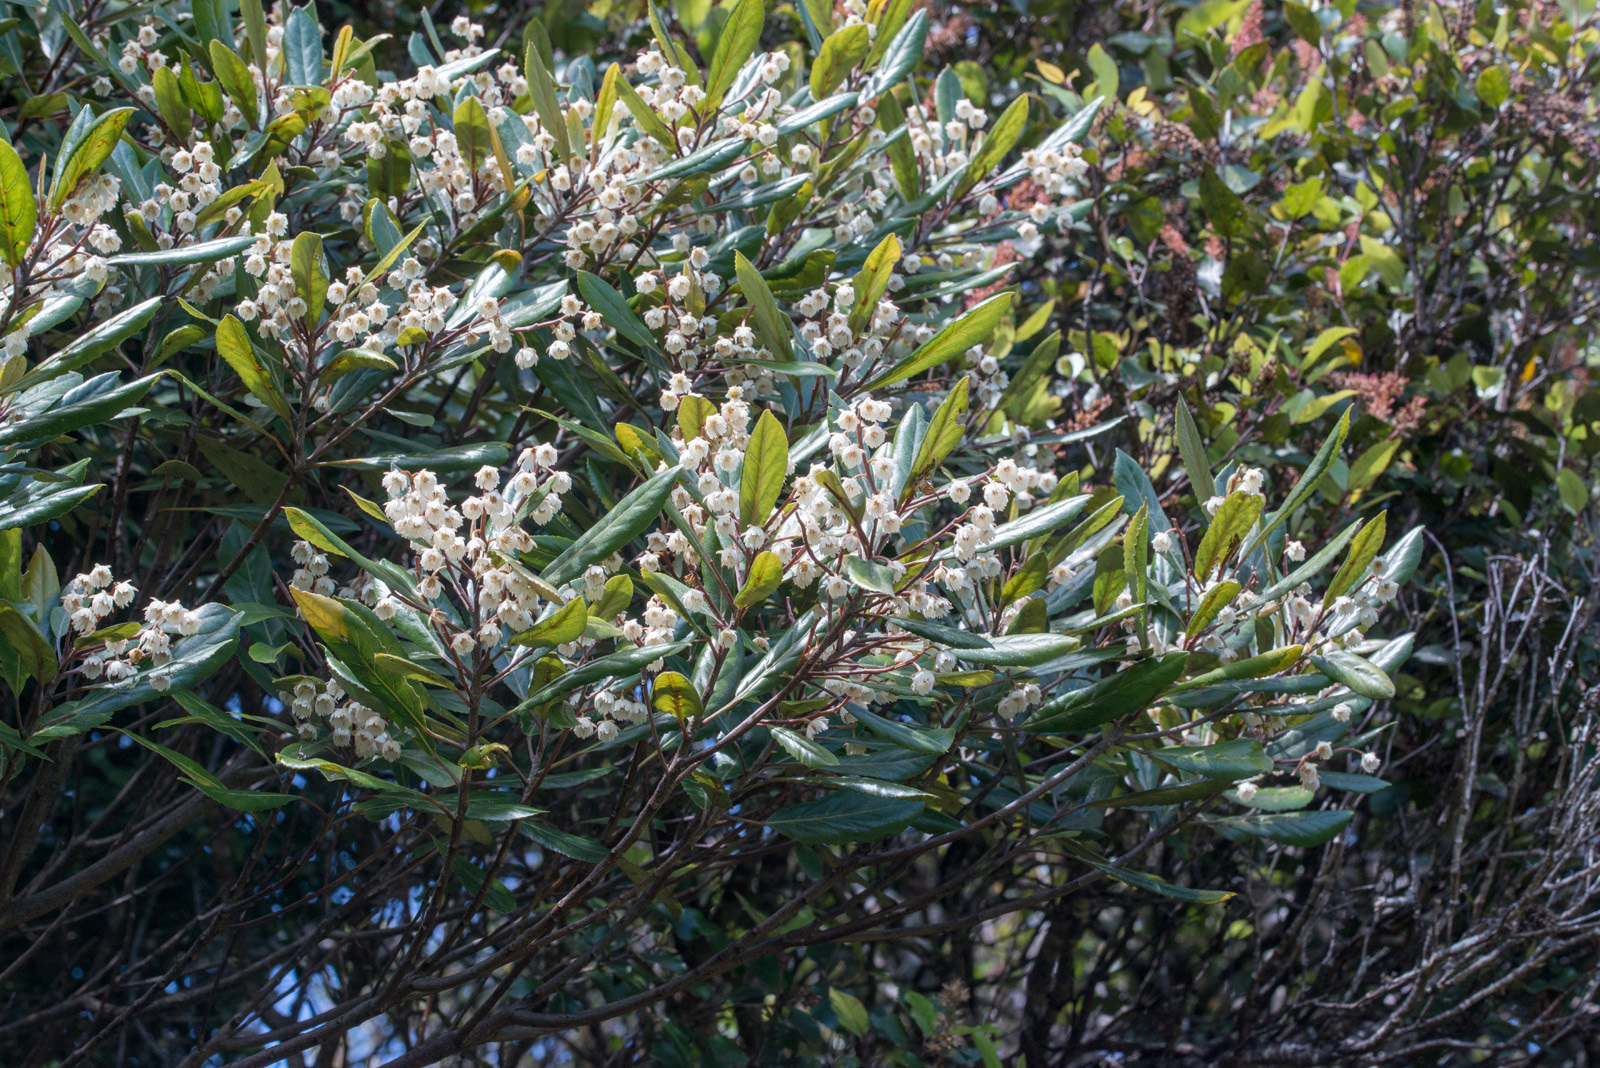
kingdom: Plantae
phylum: Tracheophyta
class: Magnoliopsida
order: Oxalidales
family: Elaeocarpaceae
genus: Elaeocarpus
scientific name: Elaeocarpus dentatus
